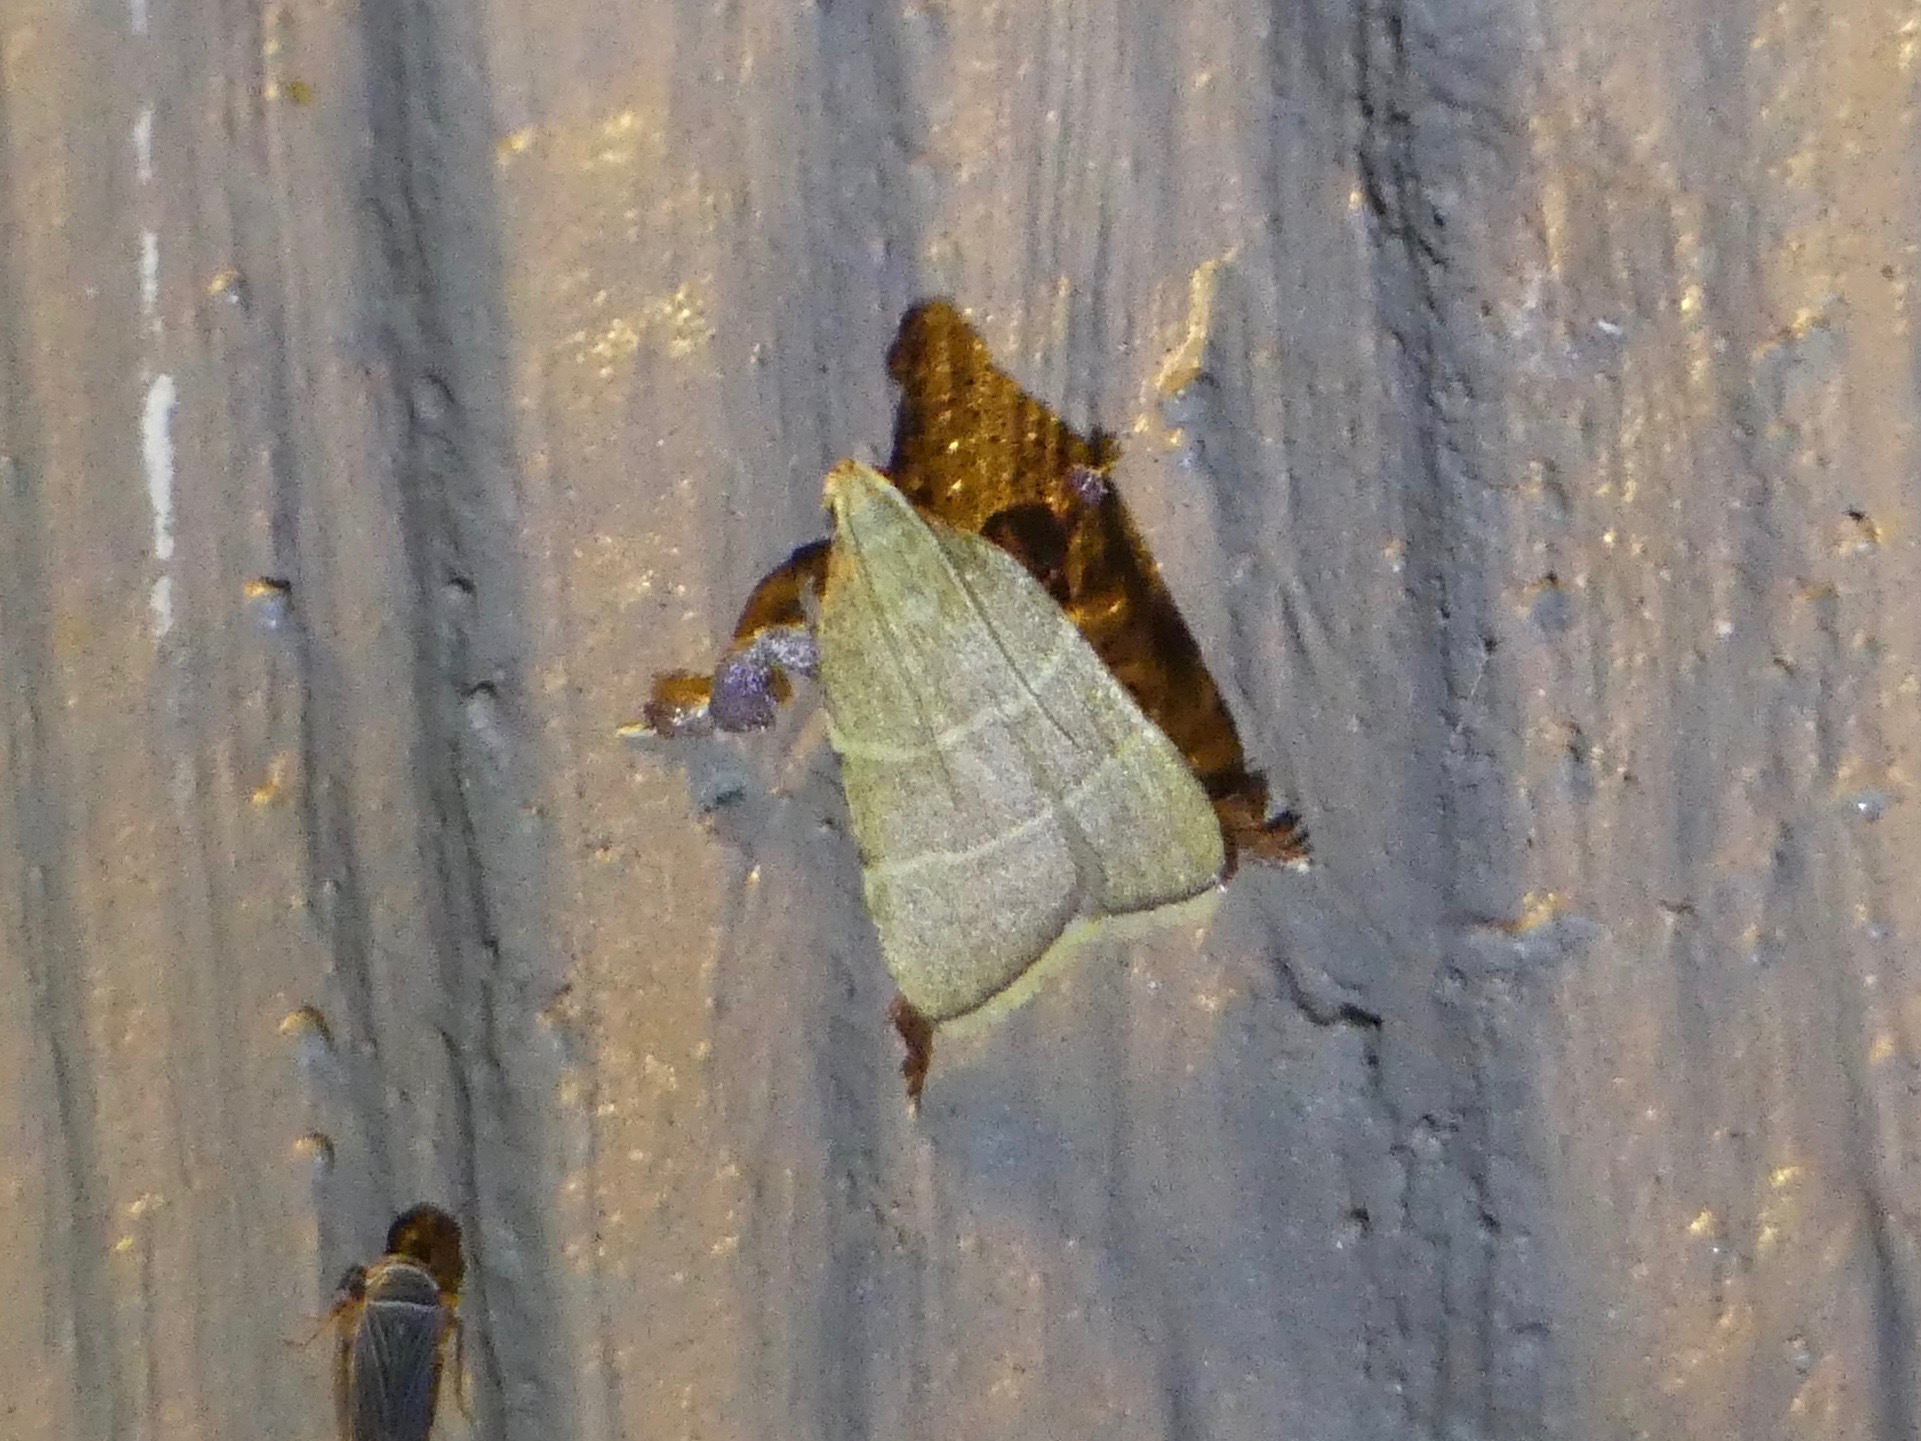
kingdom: Animalia
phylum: Arthropoda
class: Insecta
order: Lepidoptera
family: Pyralidae
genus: Parachma
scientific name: Parachma ochracealis
